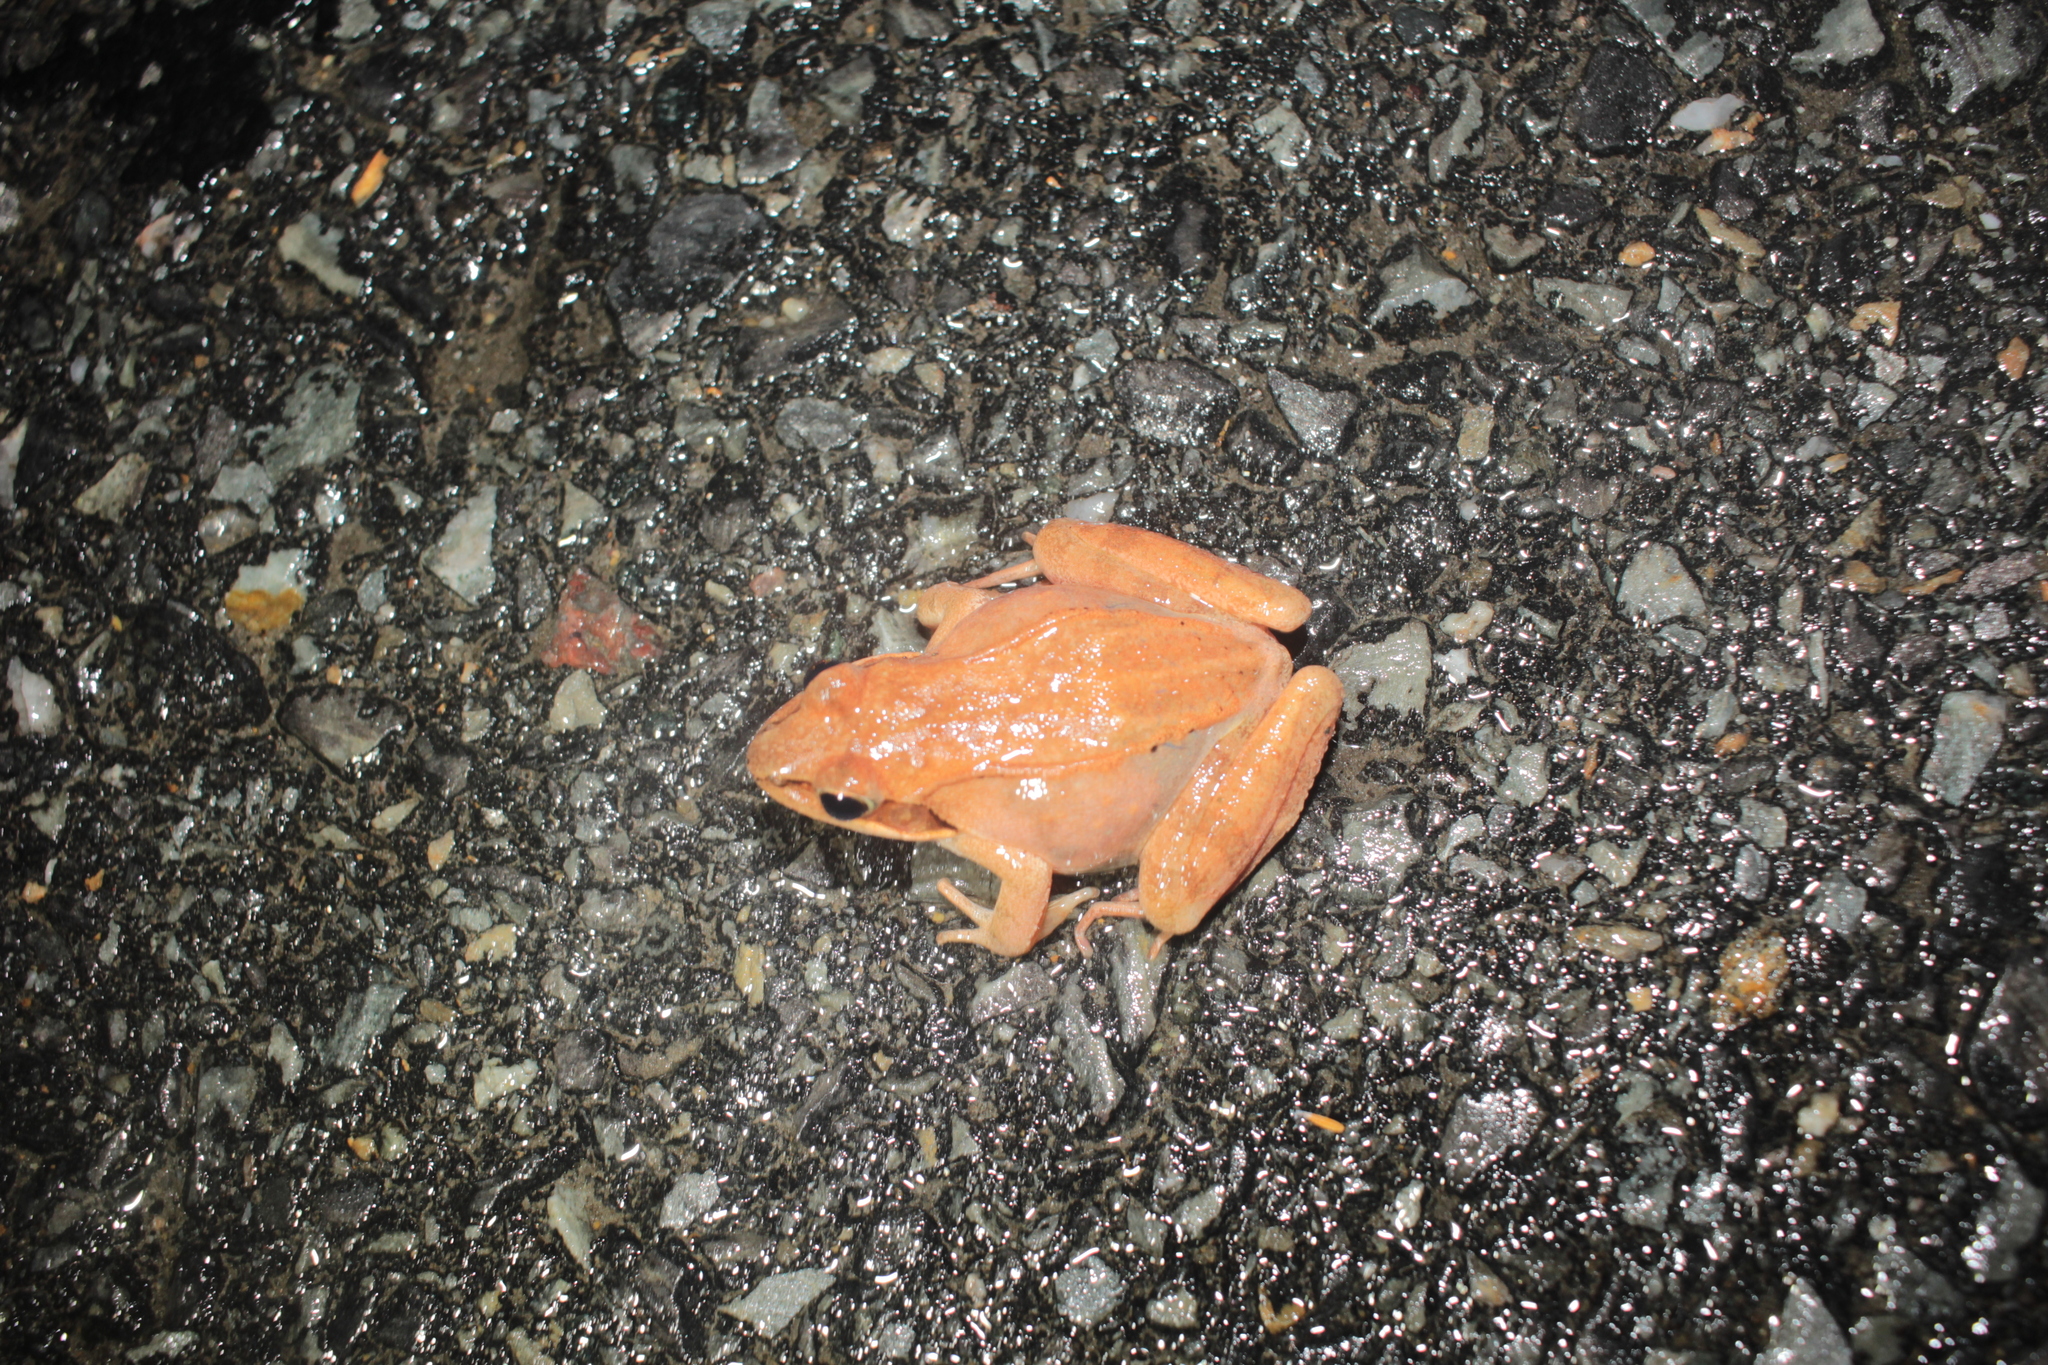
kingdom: Animalia
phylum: Chordata
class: Amphibia
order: Anura
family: Ranidae
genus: Lithobates
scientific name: Lithobates sylvaticus
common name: Wood frog
